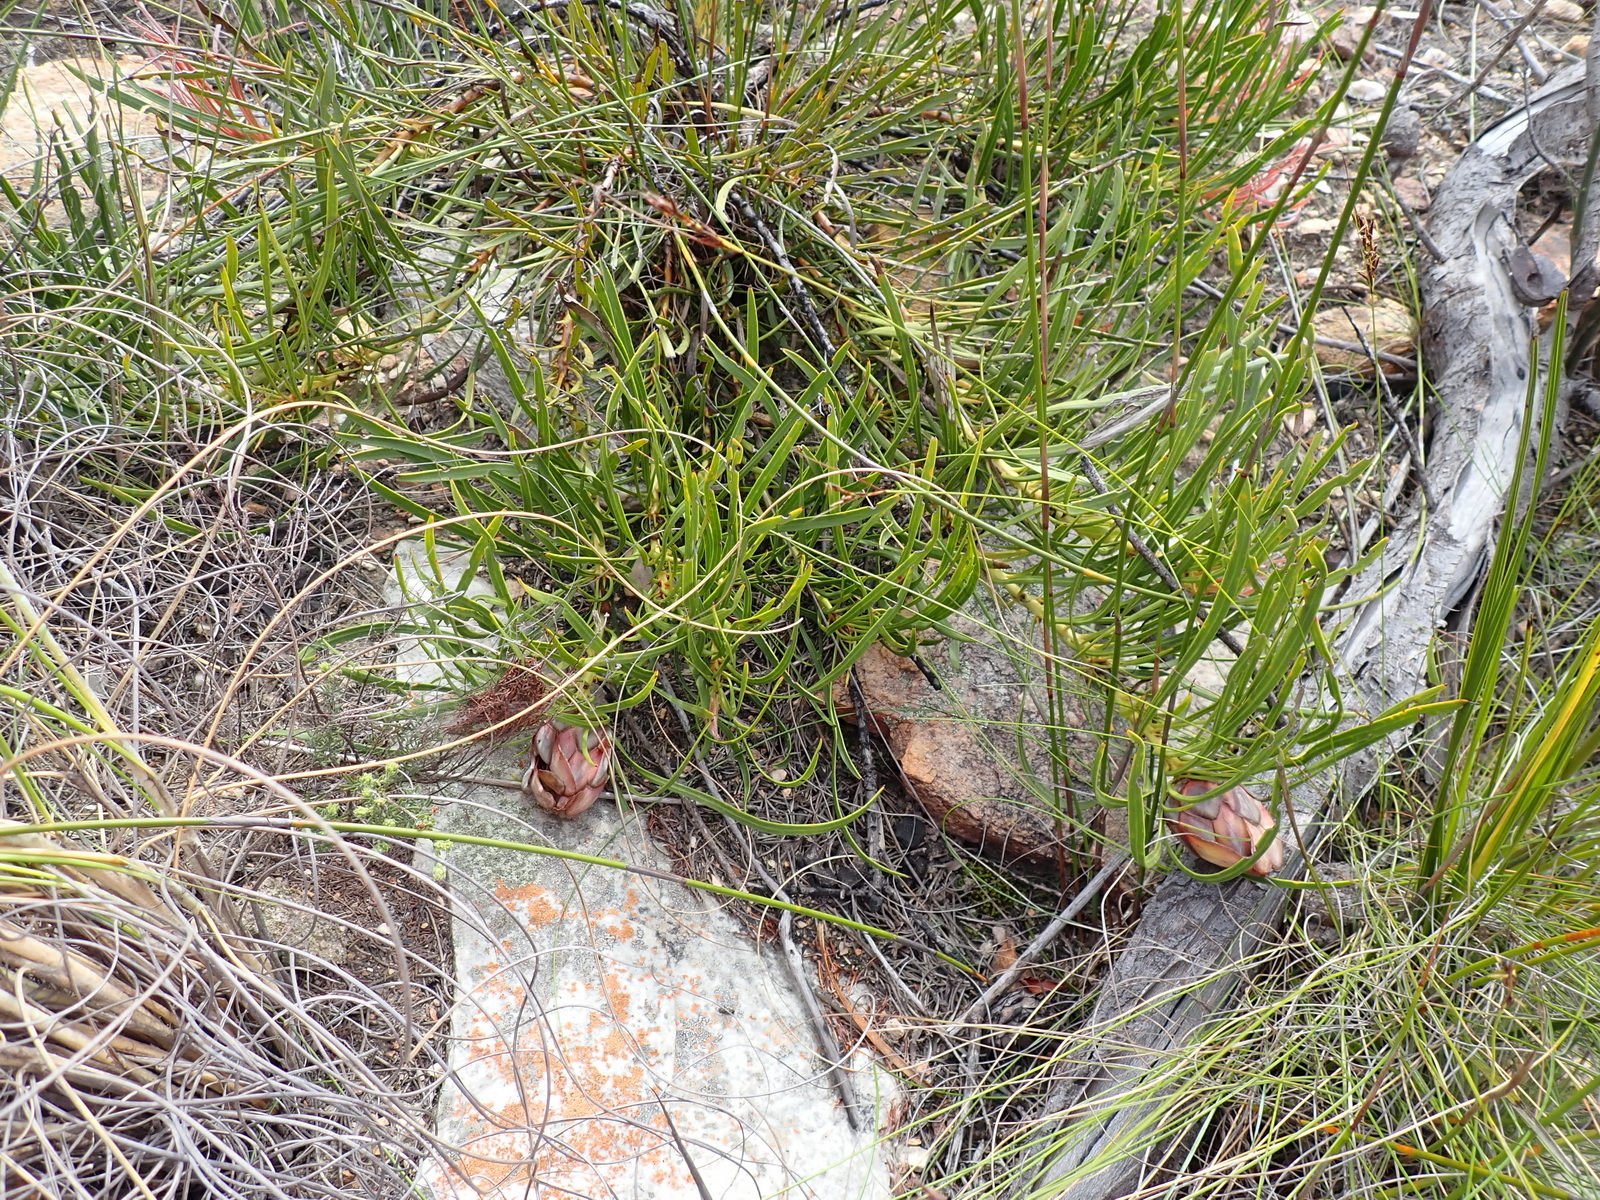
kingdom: Plantae
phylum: Tracheophyta
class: Magnoliopsida
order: Proteales
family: Proteaceae
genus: Protea
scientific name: Protea montana
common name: Swartberg sugarbush
